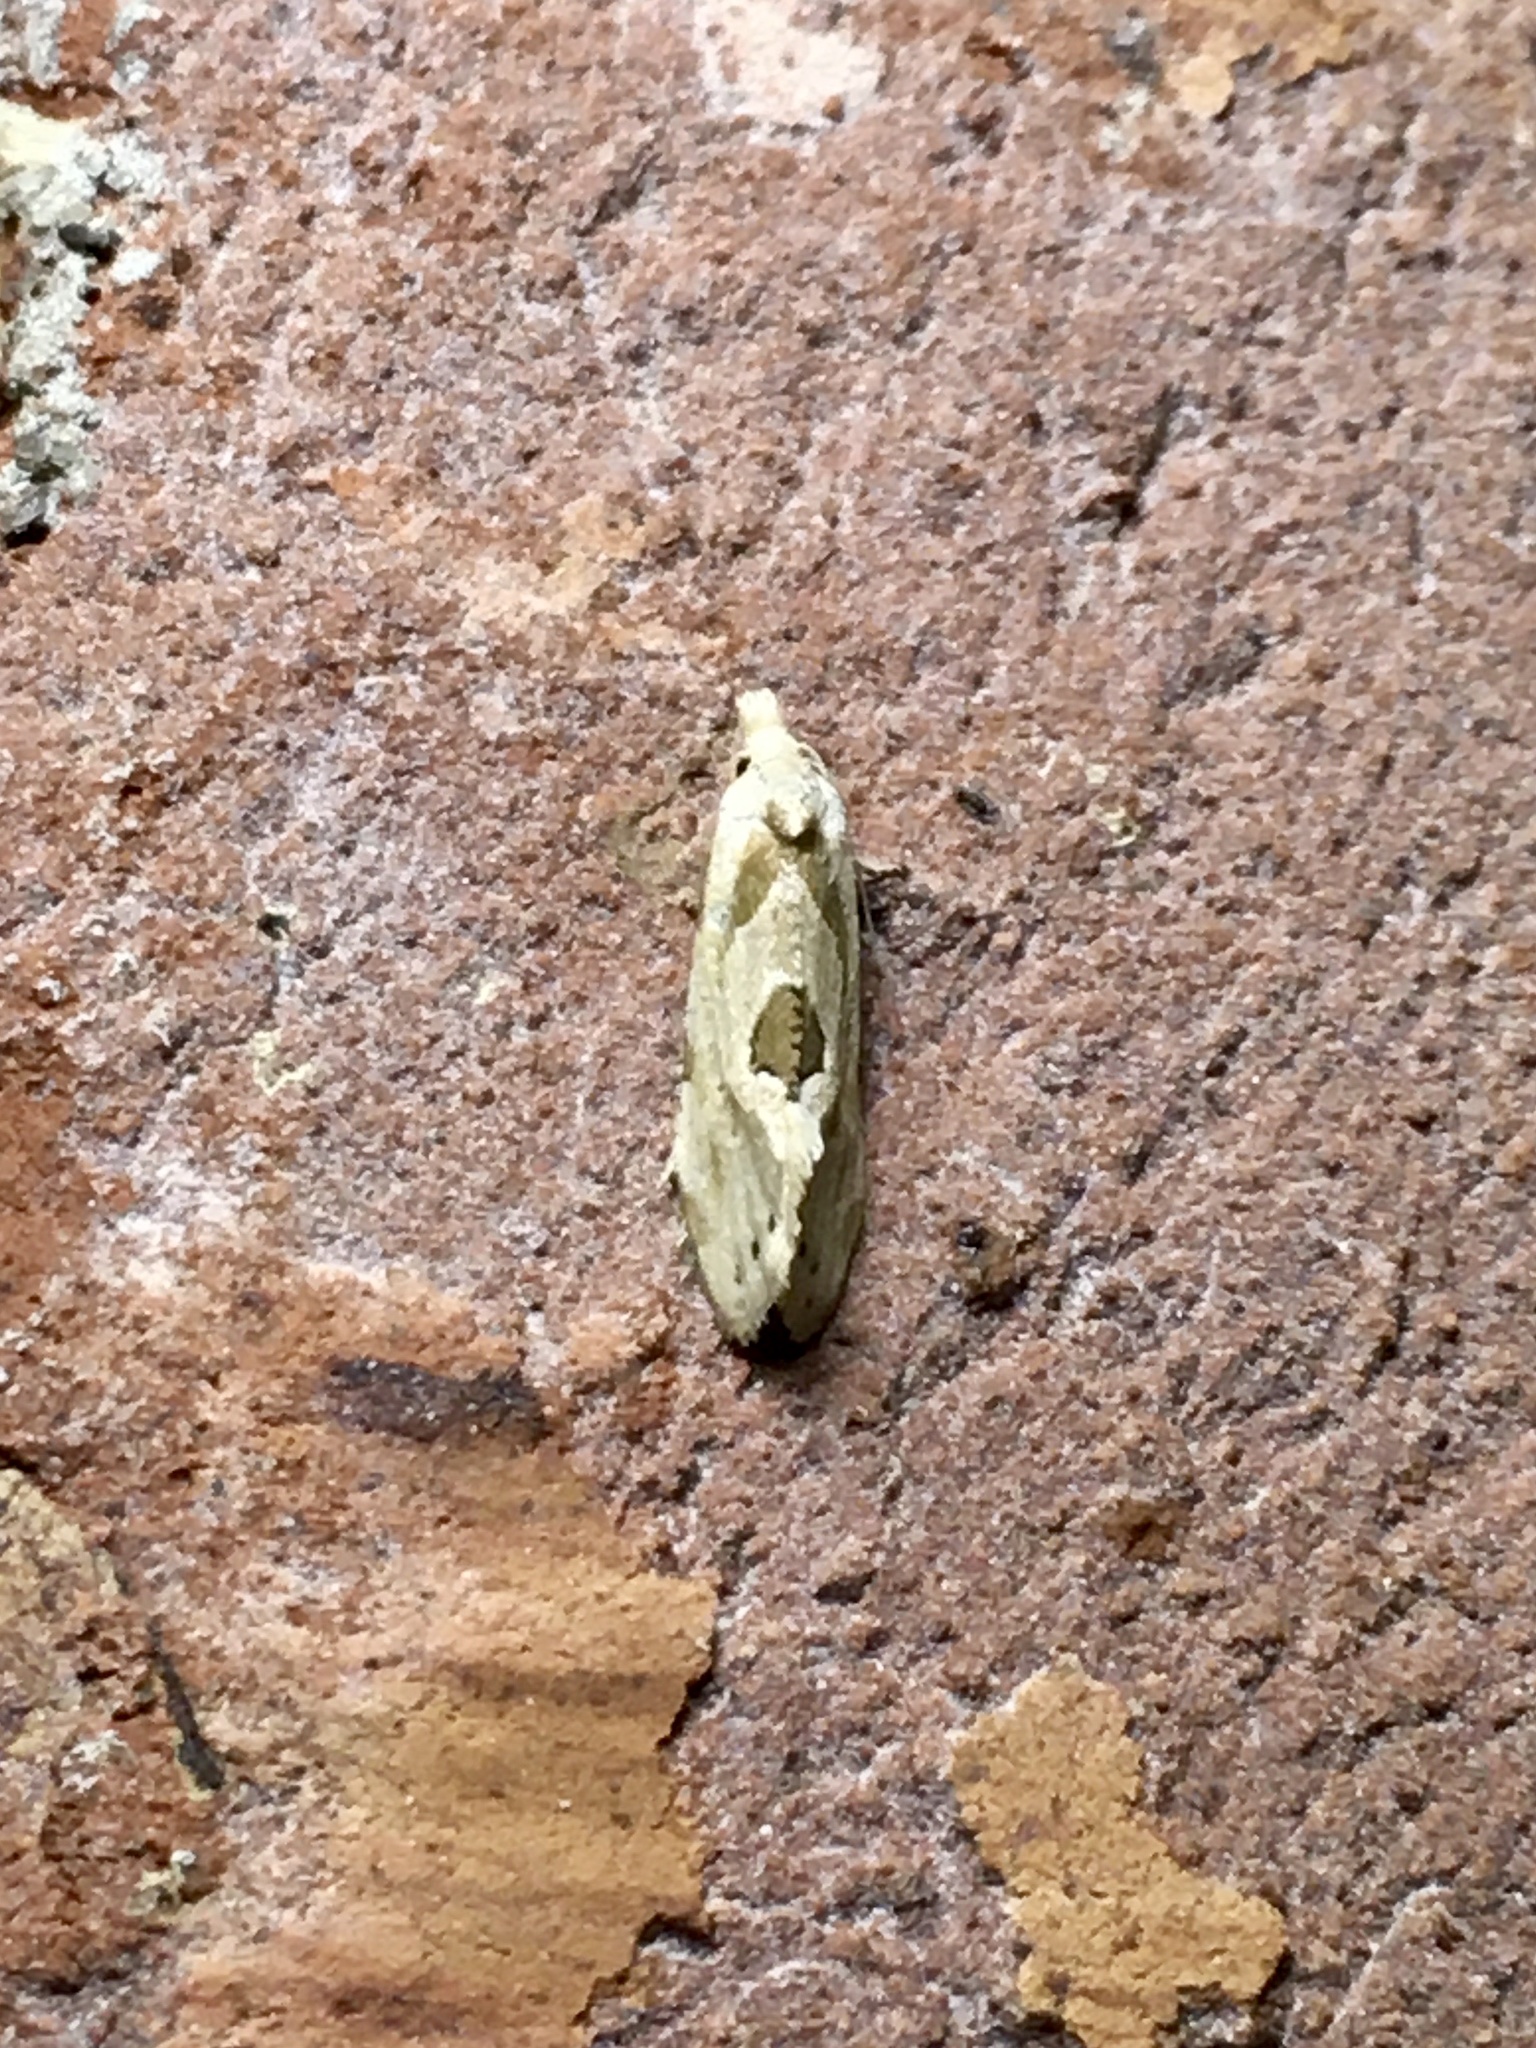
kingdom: Animalia
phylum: Arthropoda
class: Insecta
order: Lepidoptera
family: Tortricidae
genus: Aethes
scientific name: Aethes angustana
